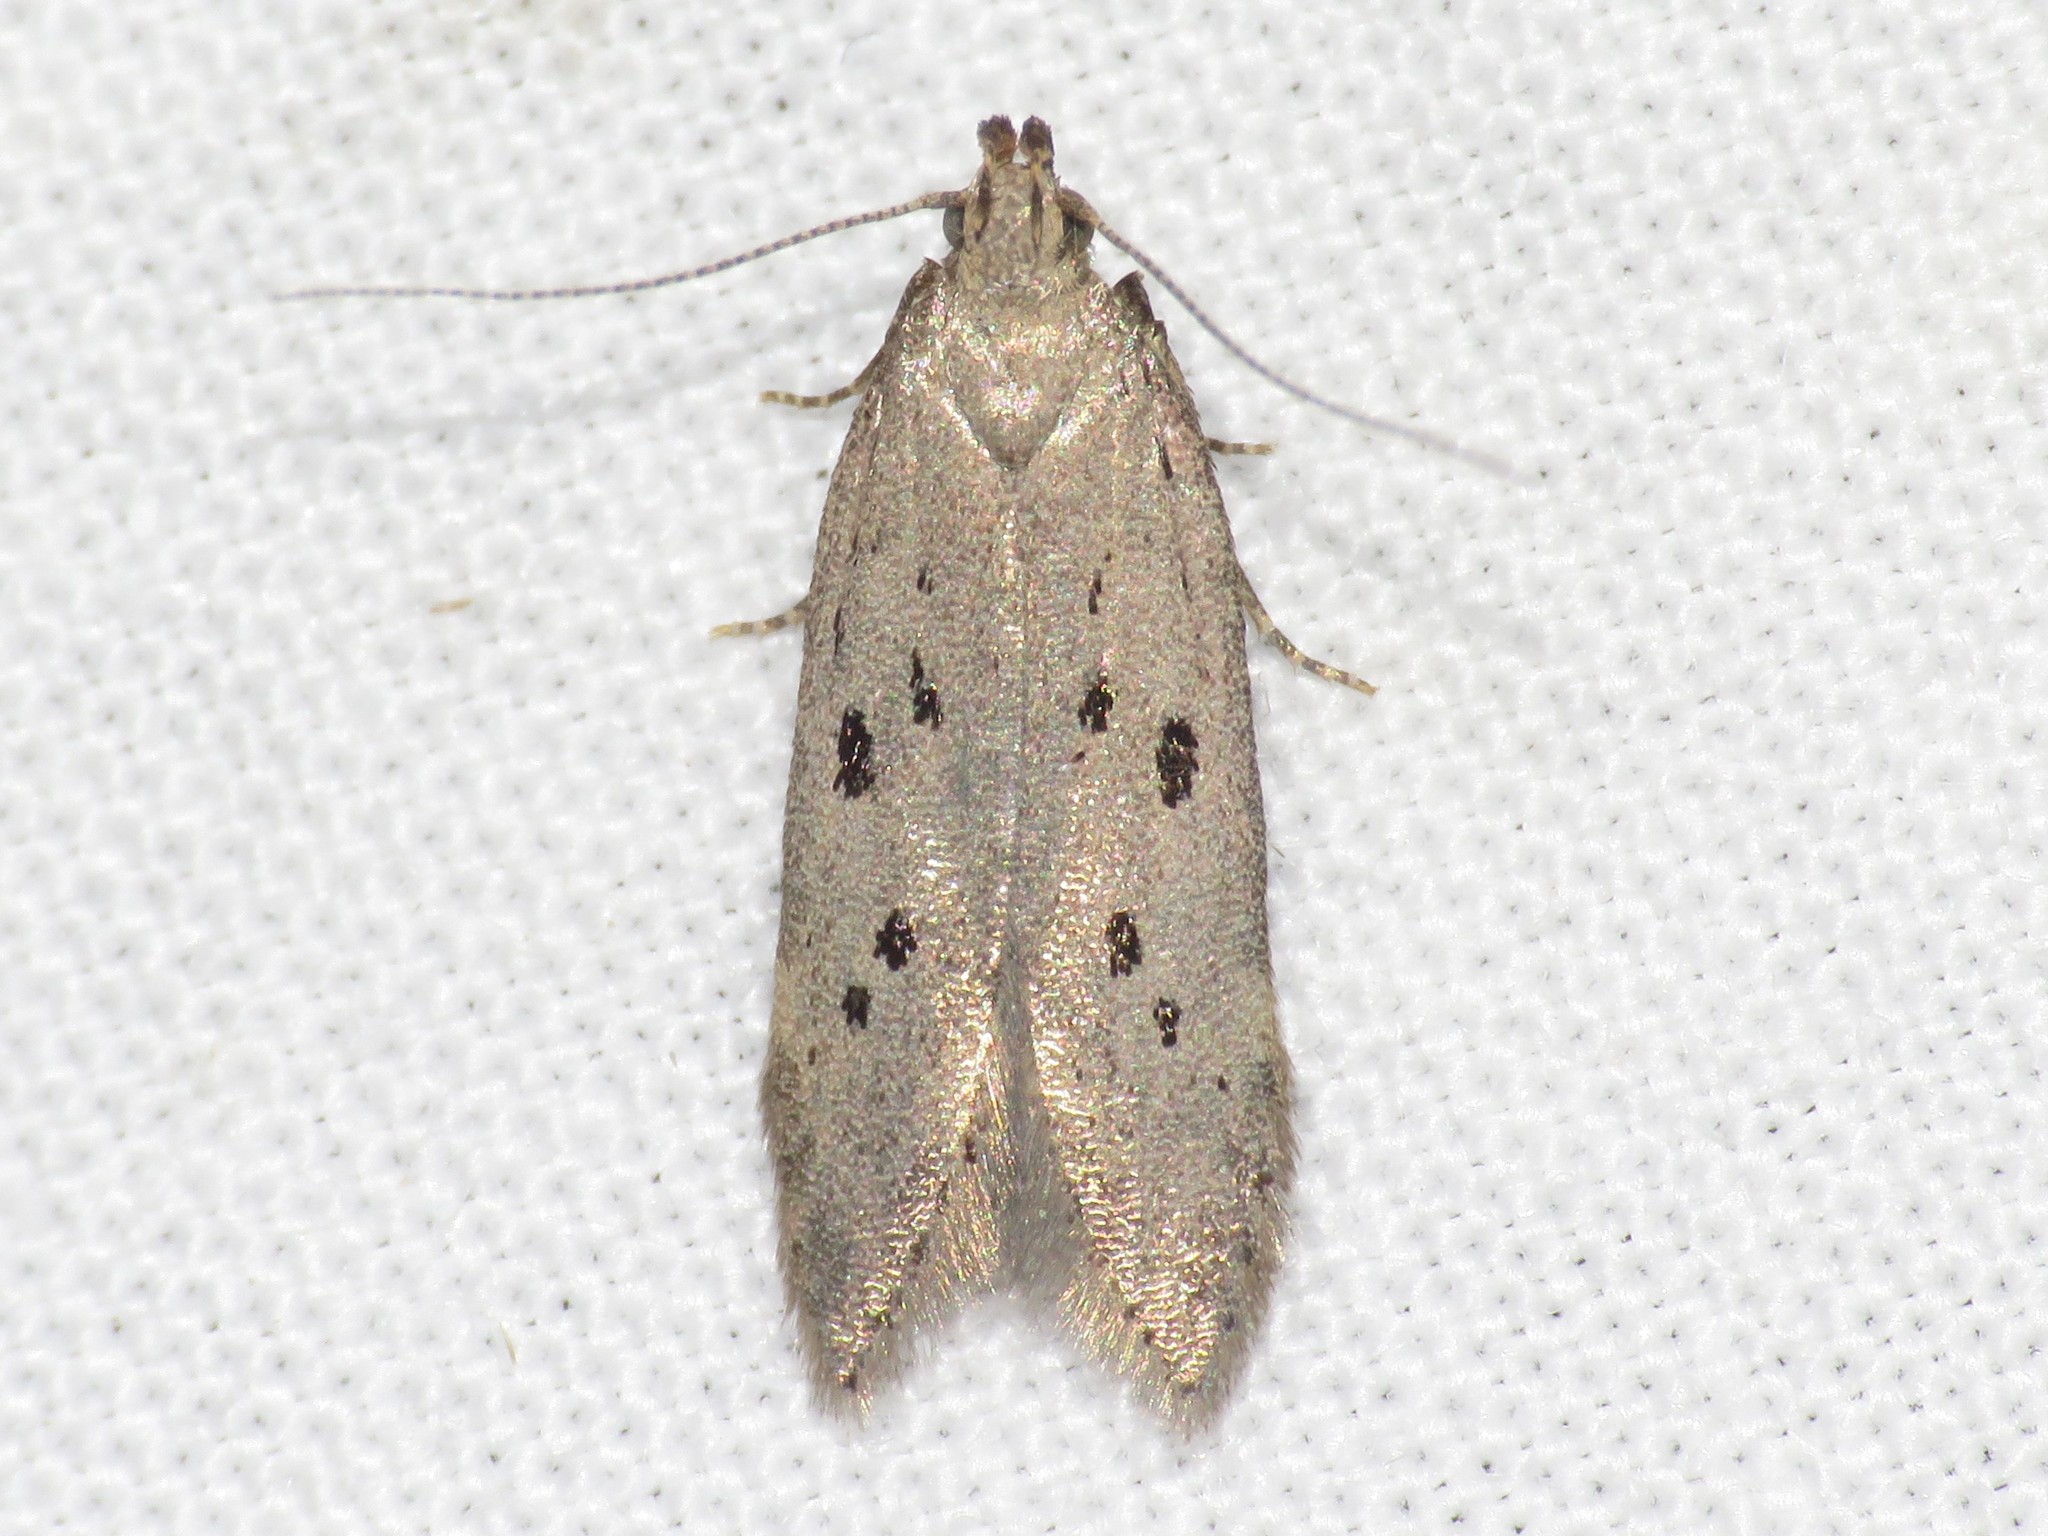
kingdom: Animalia
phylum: Arthropoda
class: Insecta
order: Lepidoptera
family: Gelechiidae
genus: Athrips
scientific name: Athrips mouffetella
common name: Dotted grey groundling
